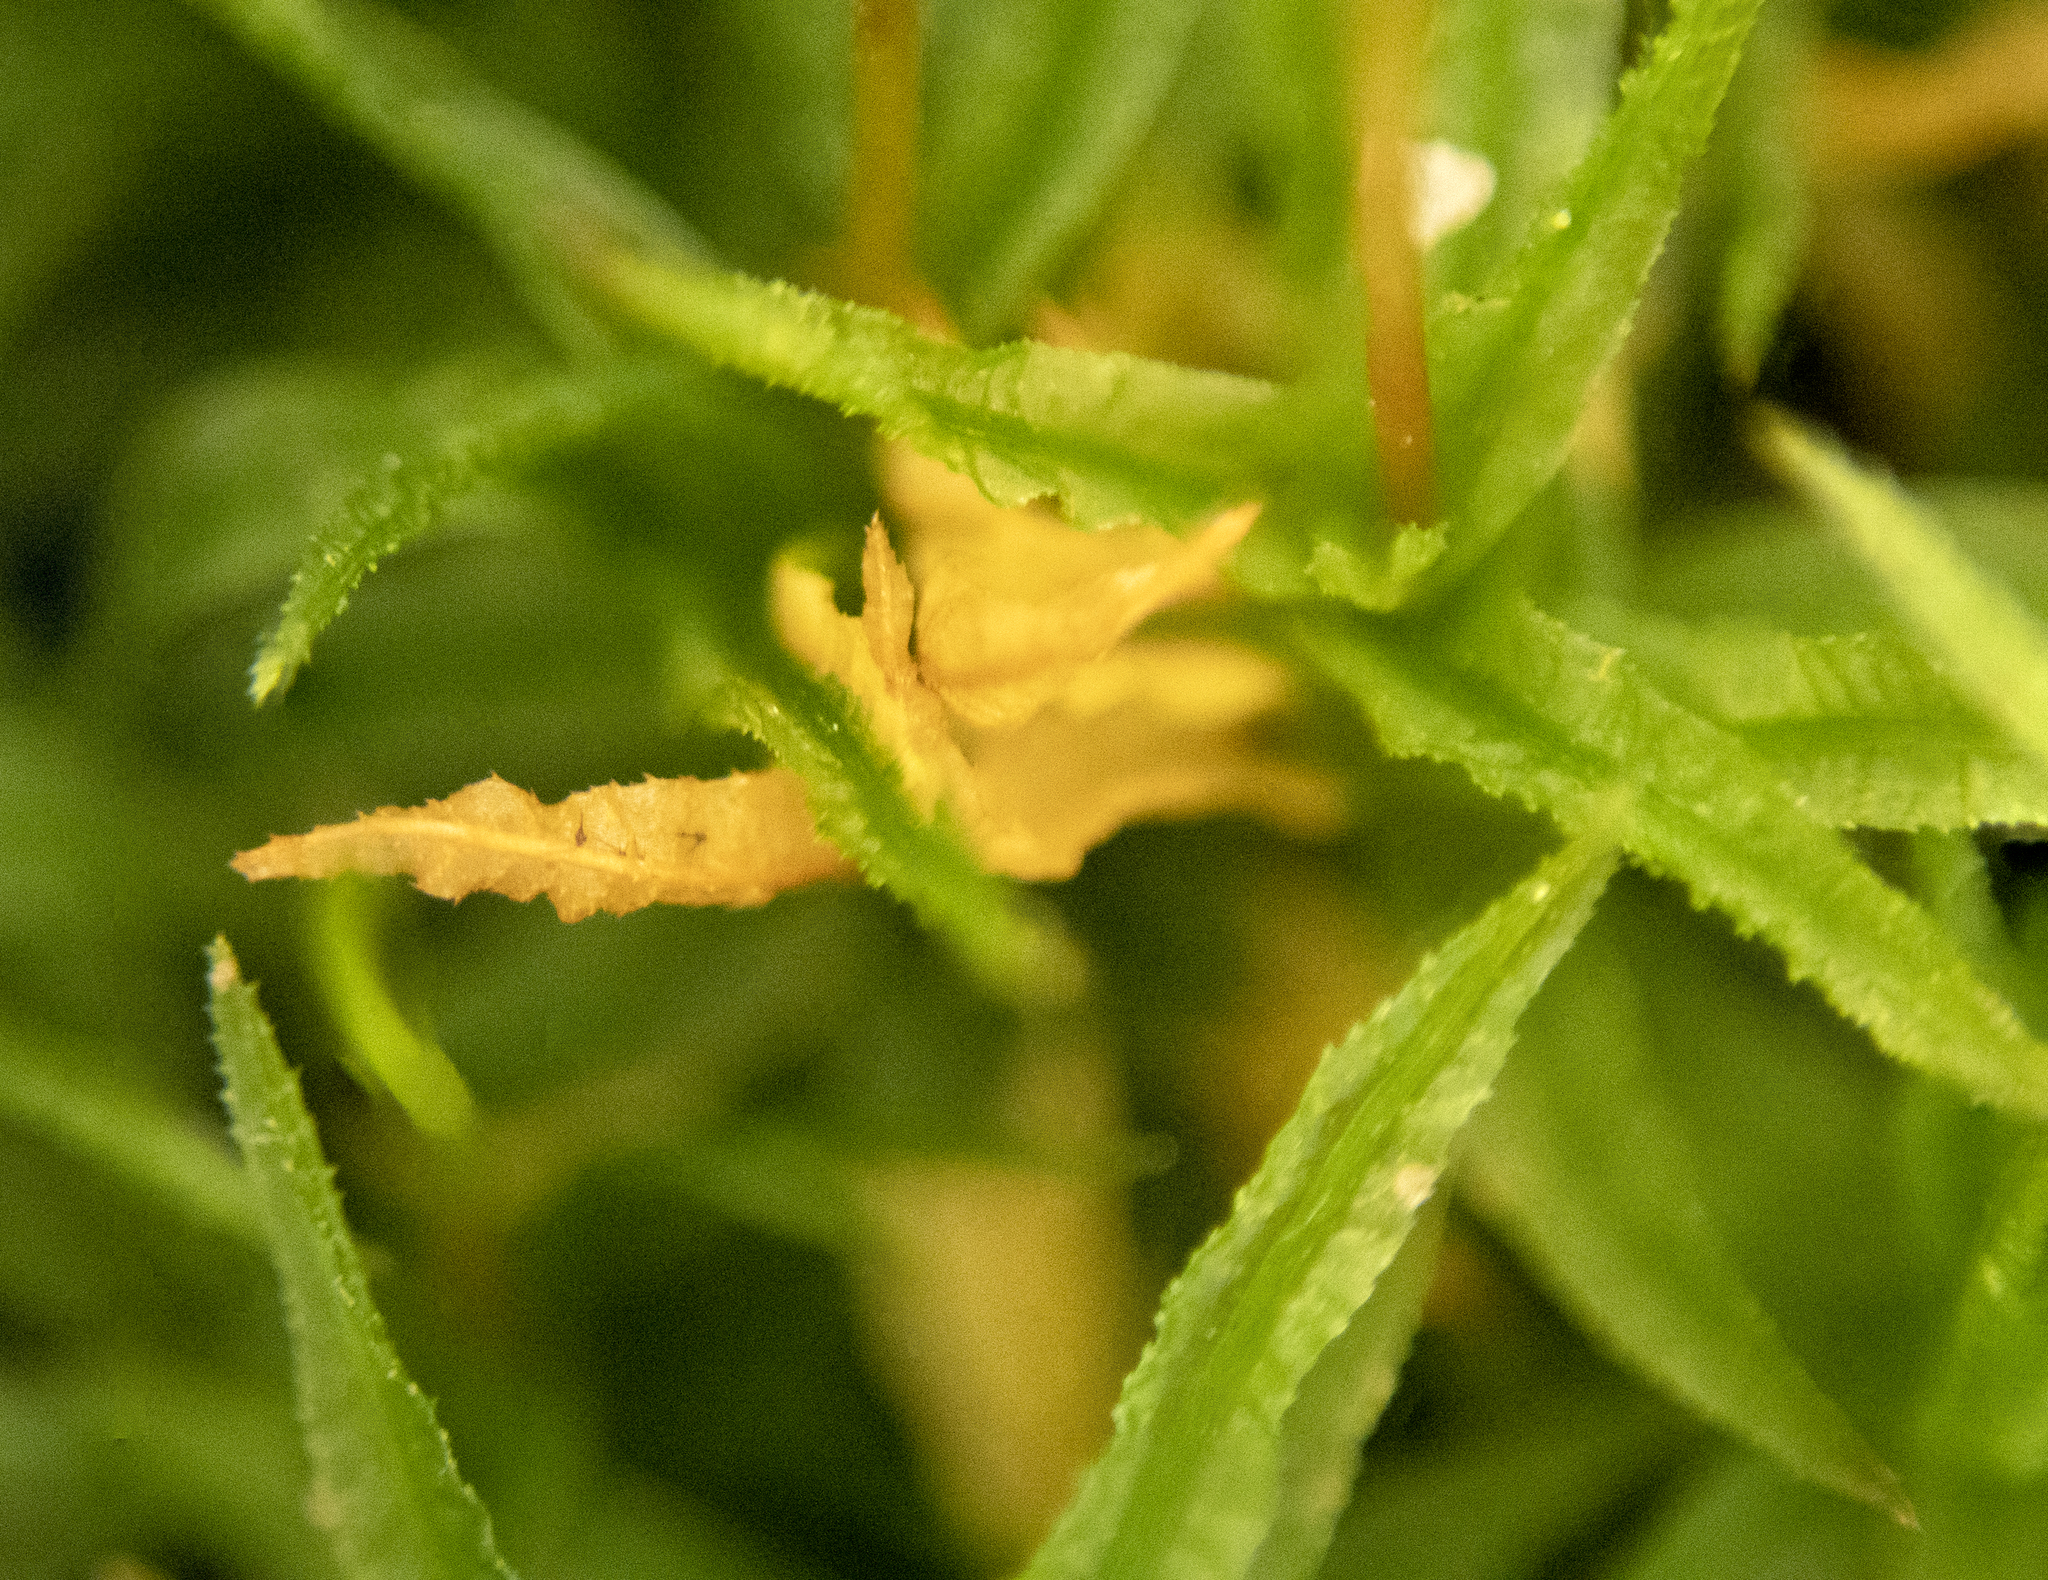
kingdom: Plantae
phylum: Bryophyta
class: Polytrichopsida
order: Polytrichales
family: Polytrichaceae
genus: Atrichum
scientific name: Atrichum undulatum
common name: Common smoothcap
